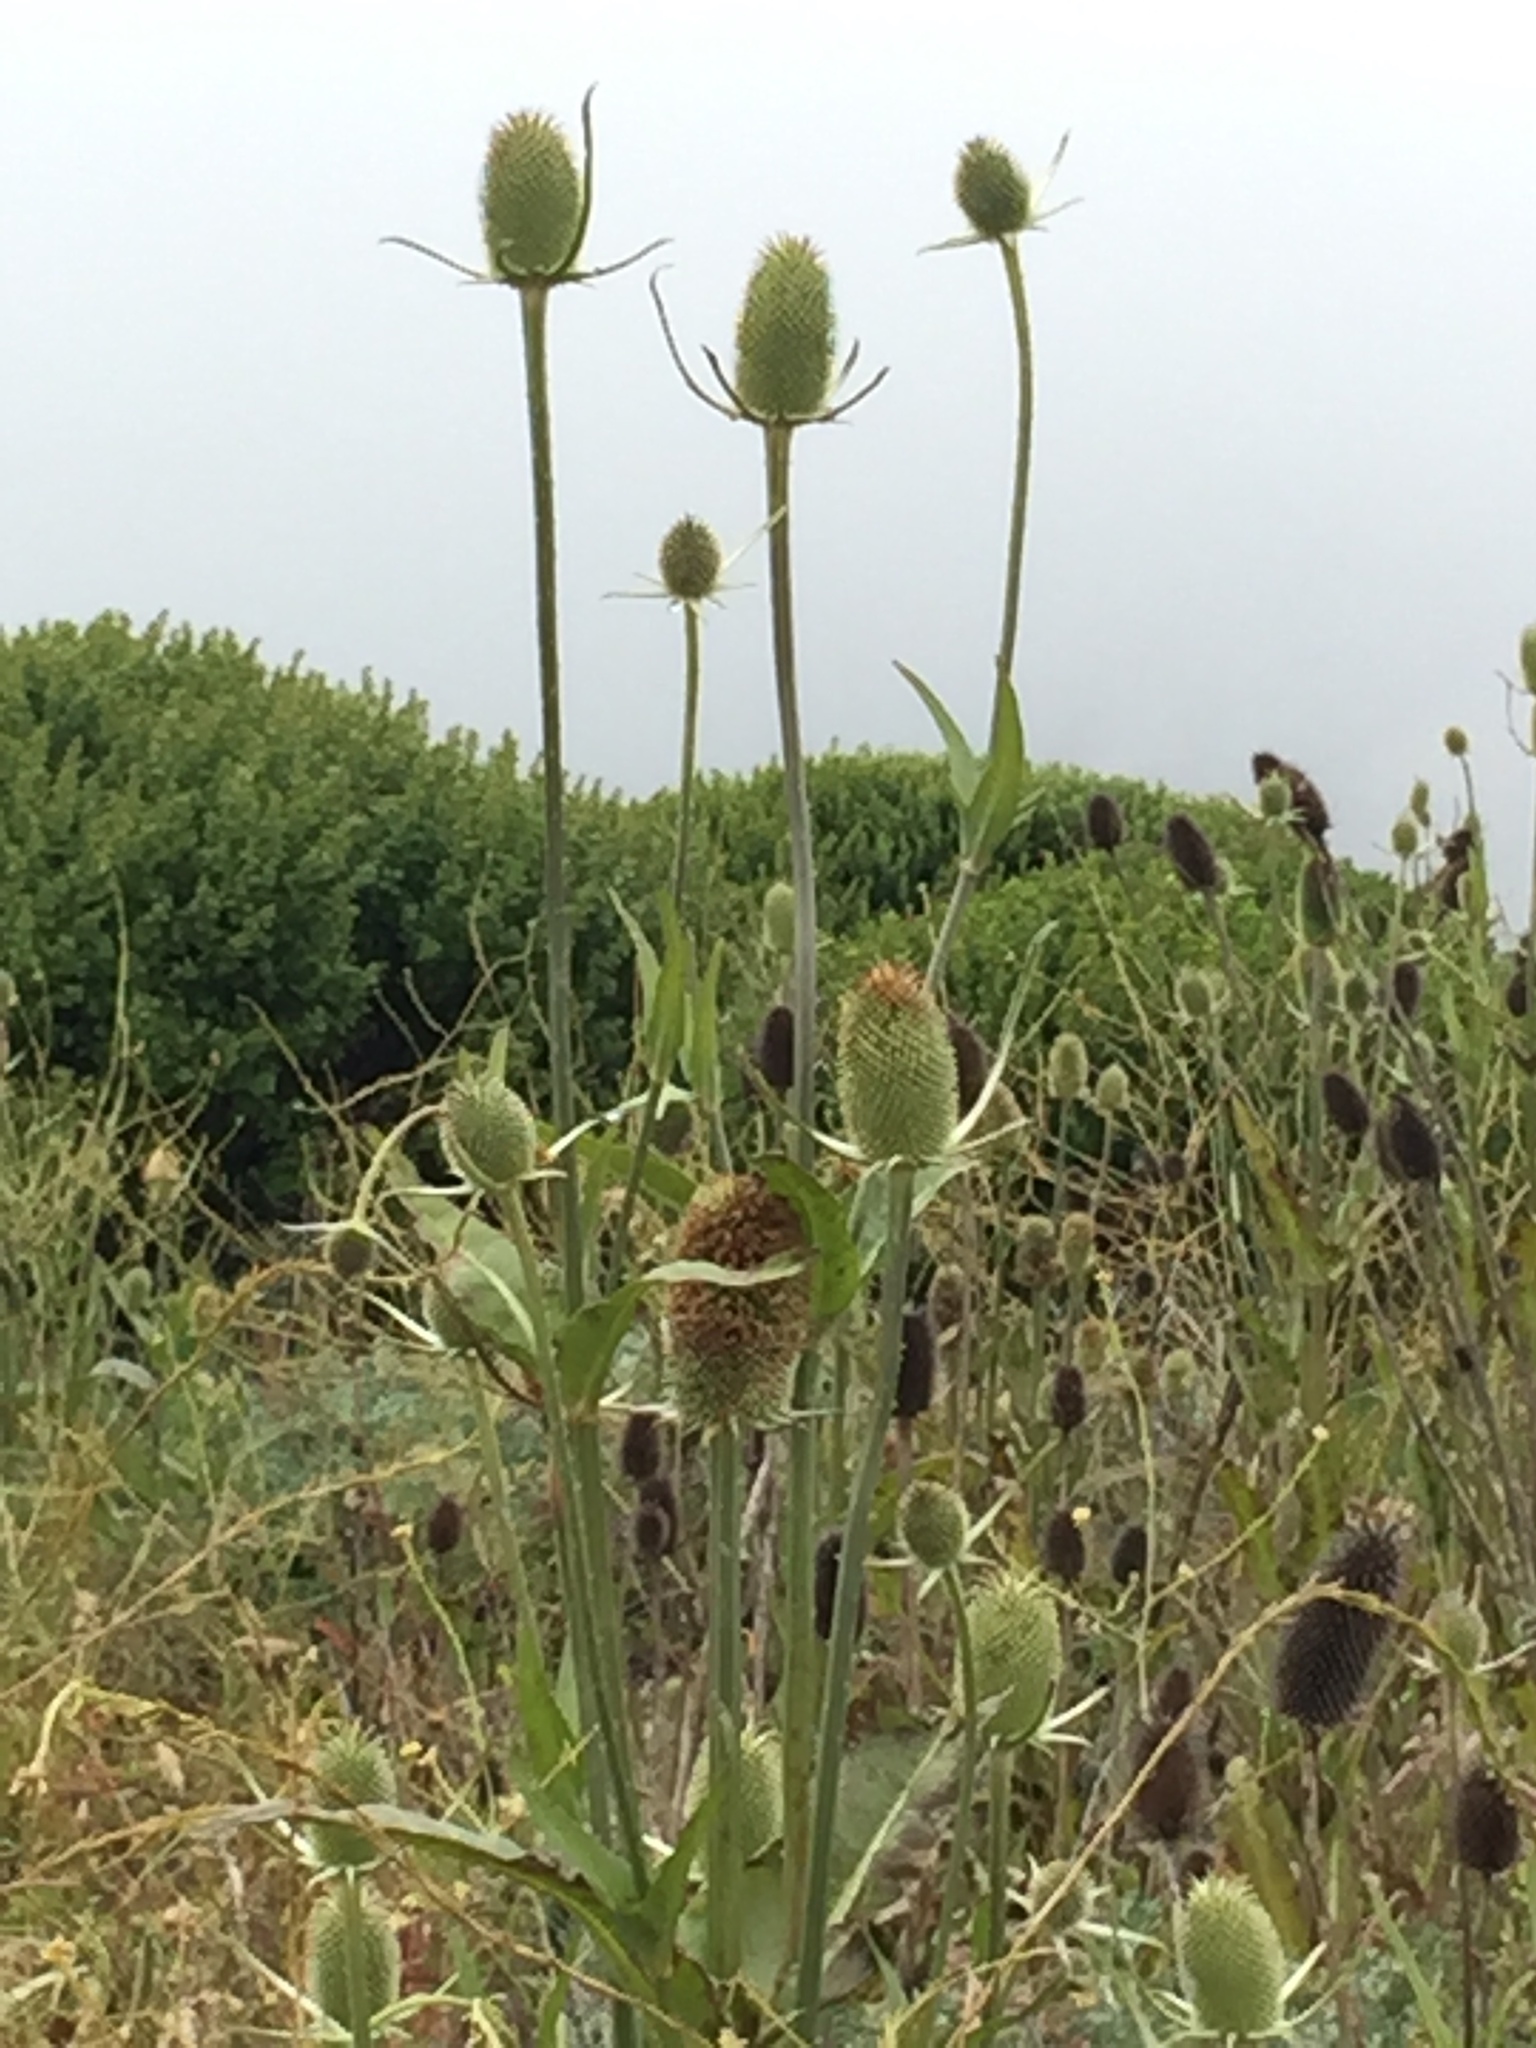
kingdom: Plantae
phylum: Tracheophyta
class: Magnoliopsida
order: Dipsacales
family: Caprifoliaceae
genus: Dipsacus
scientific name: Dipsacus sativus
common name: Fuller's teasel
